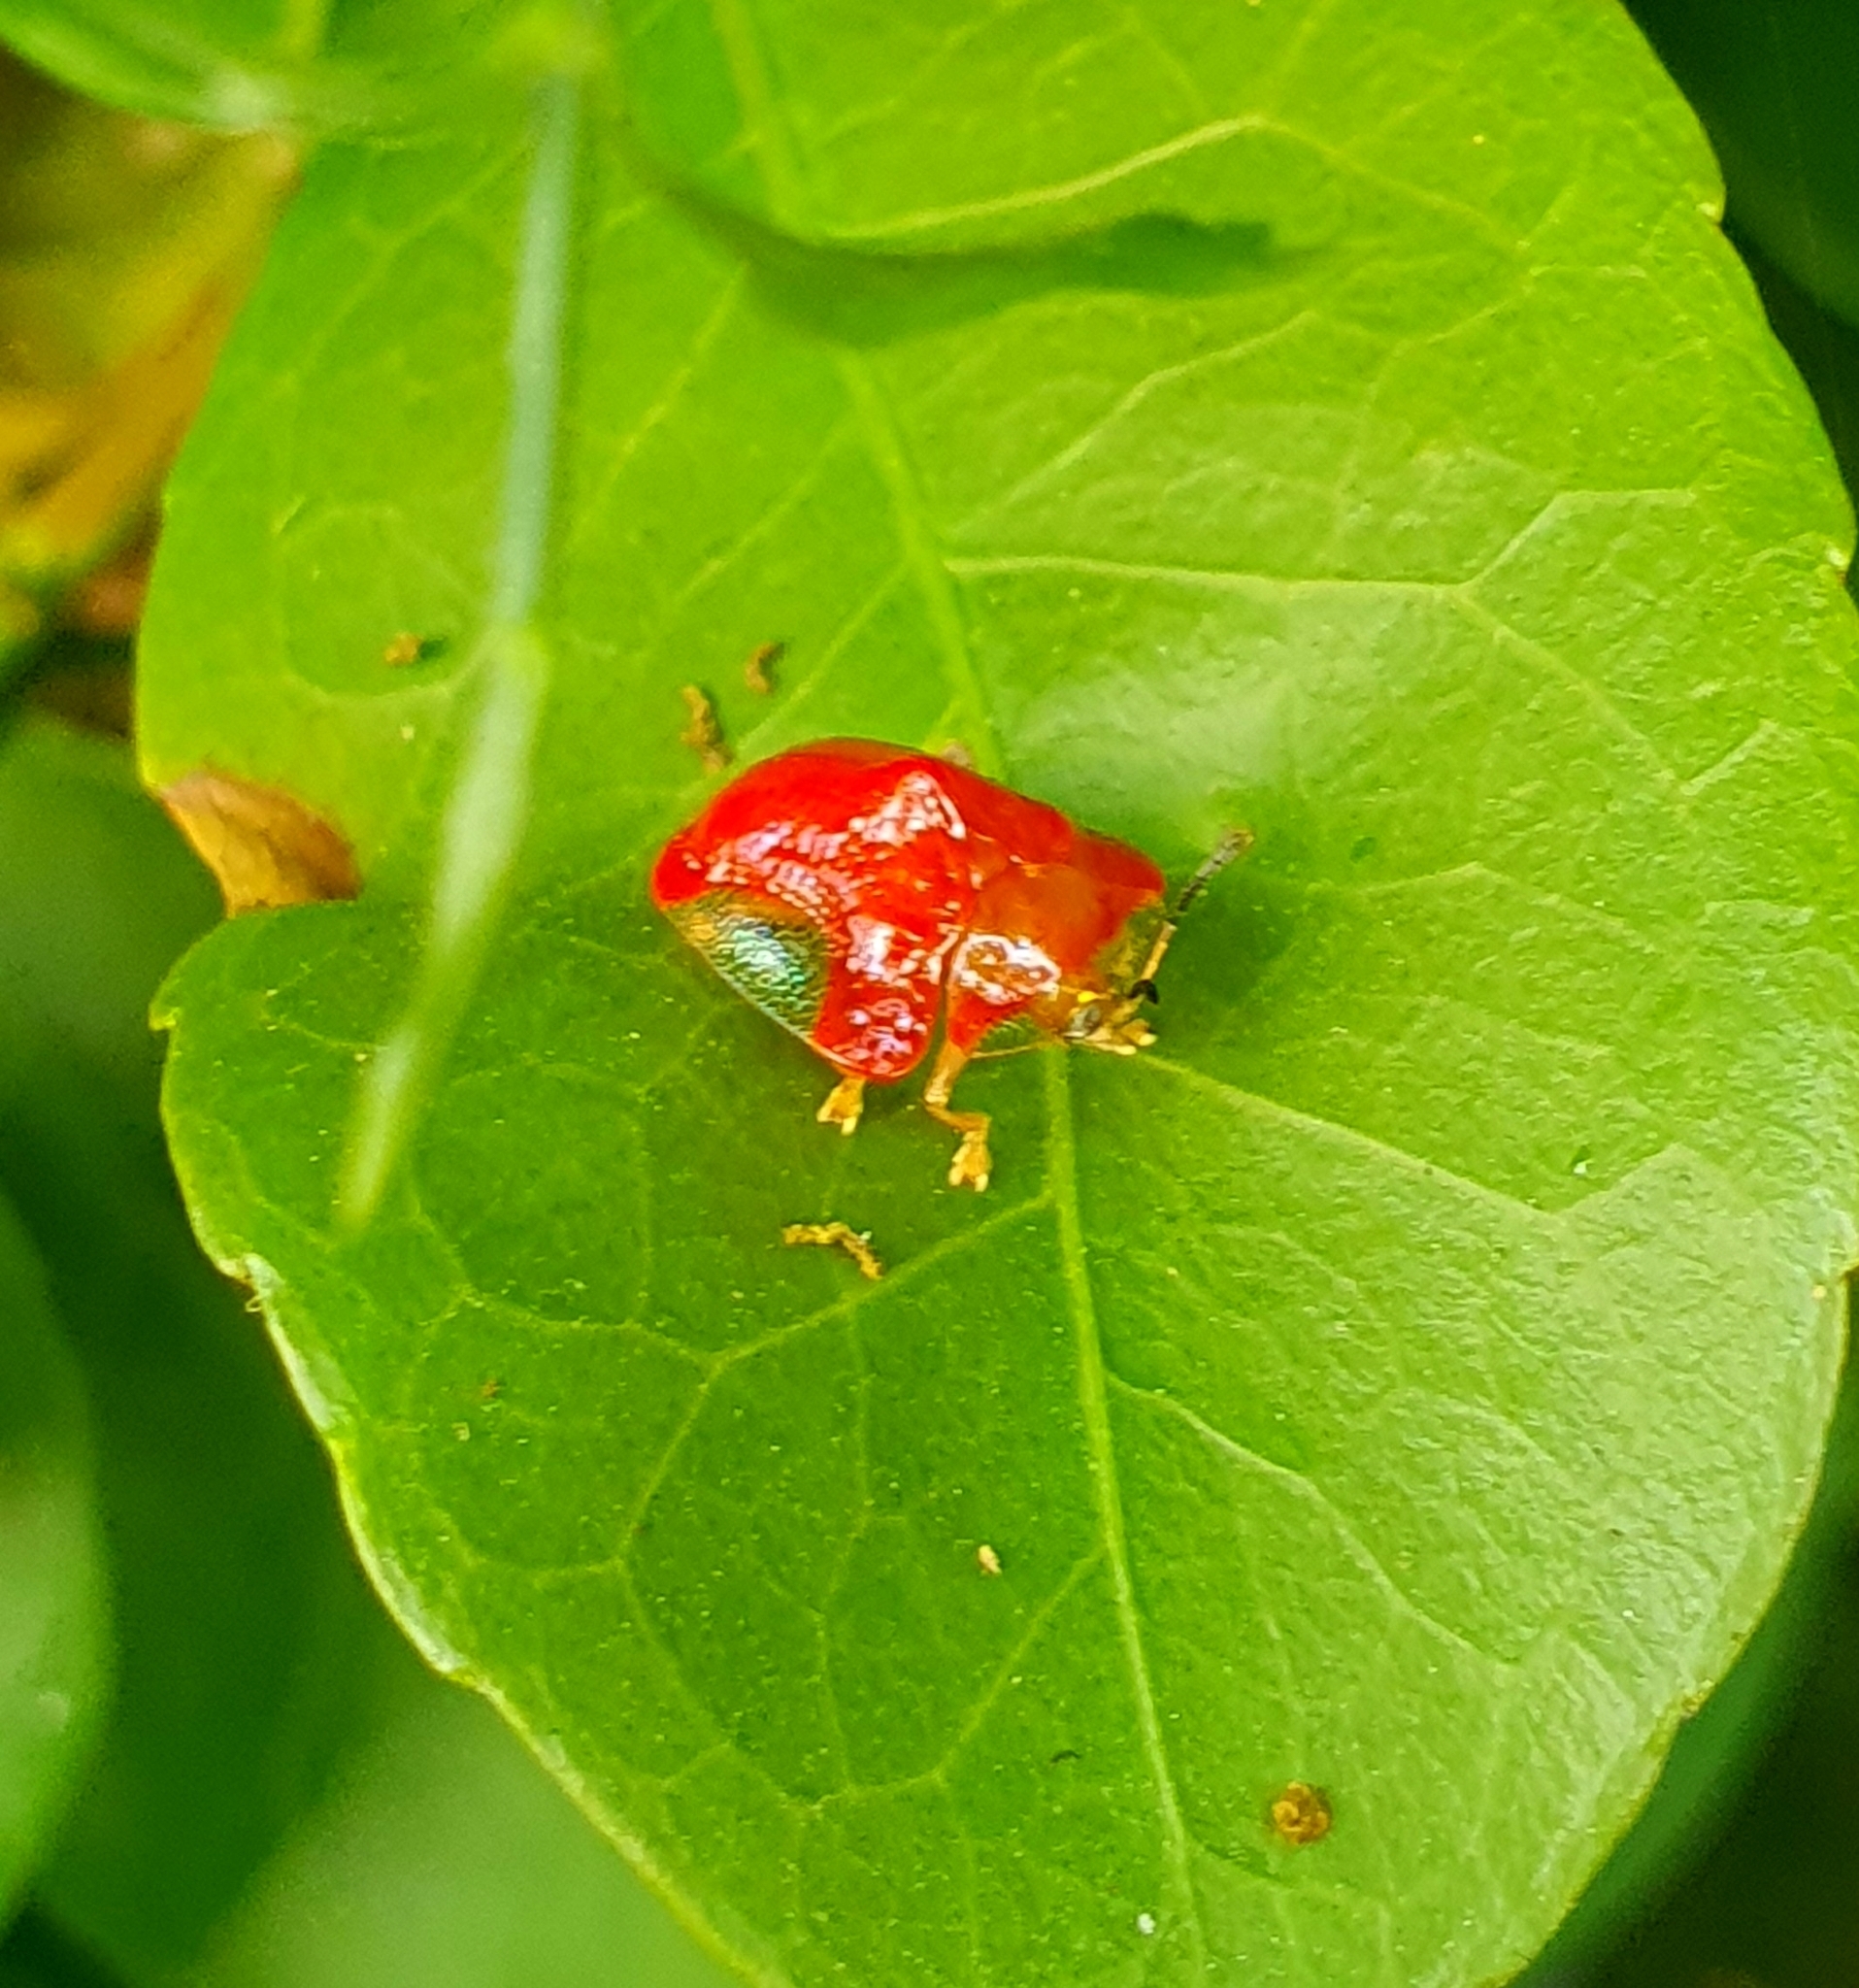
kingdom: Animalia
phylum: Arthropoda
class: Insecta
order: Coleoptera
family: Chrysomelidae
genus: Charidotella
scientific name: Charidotella rubicunda
